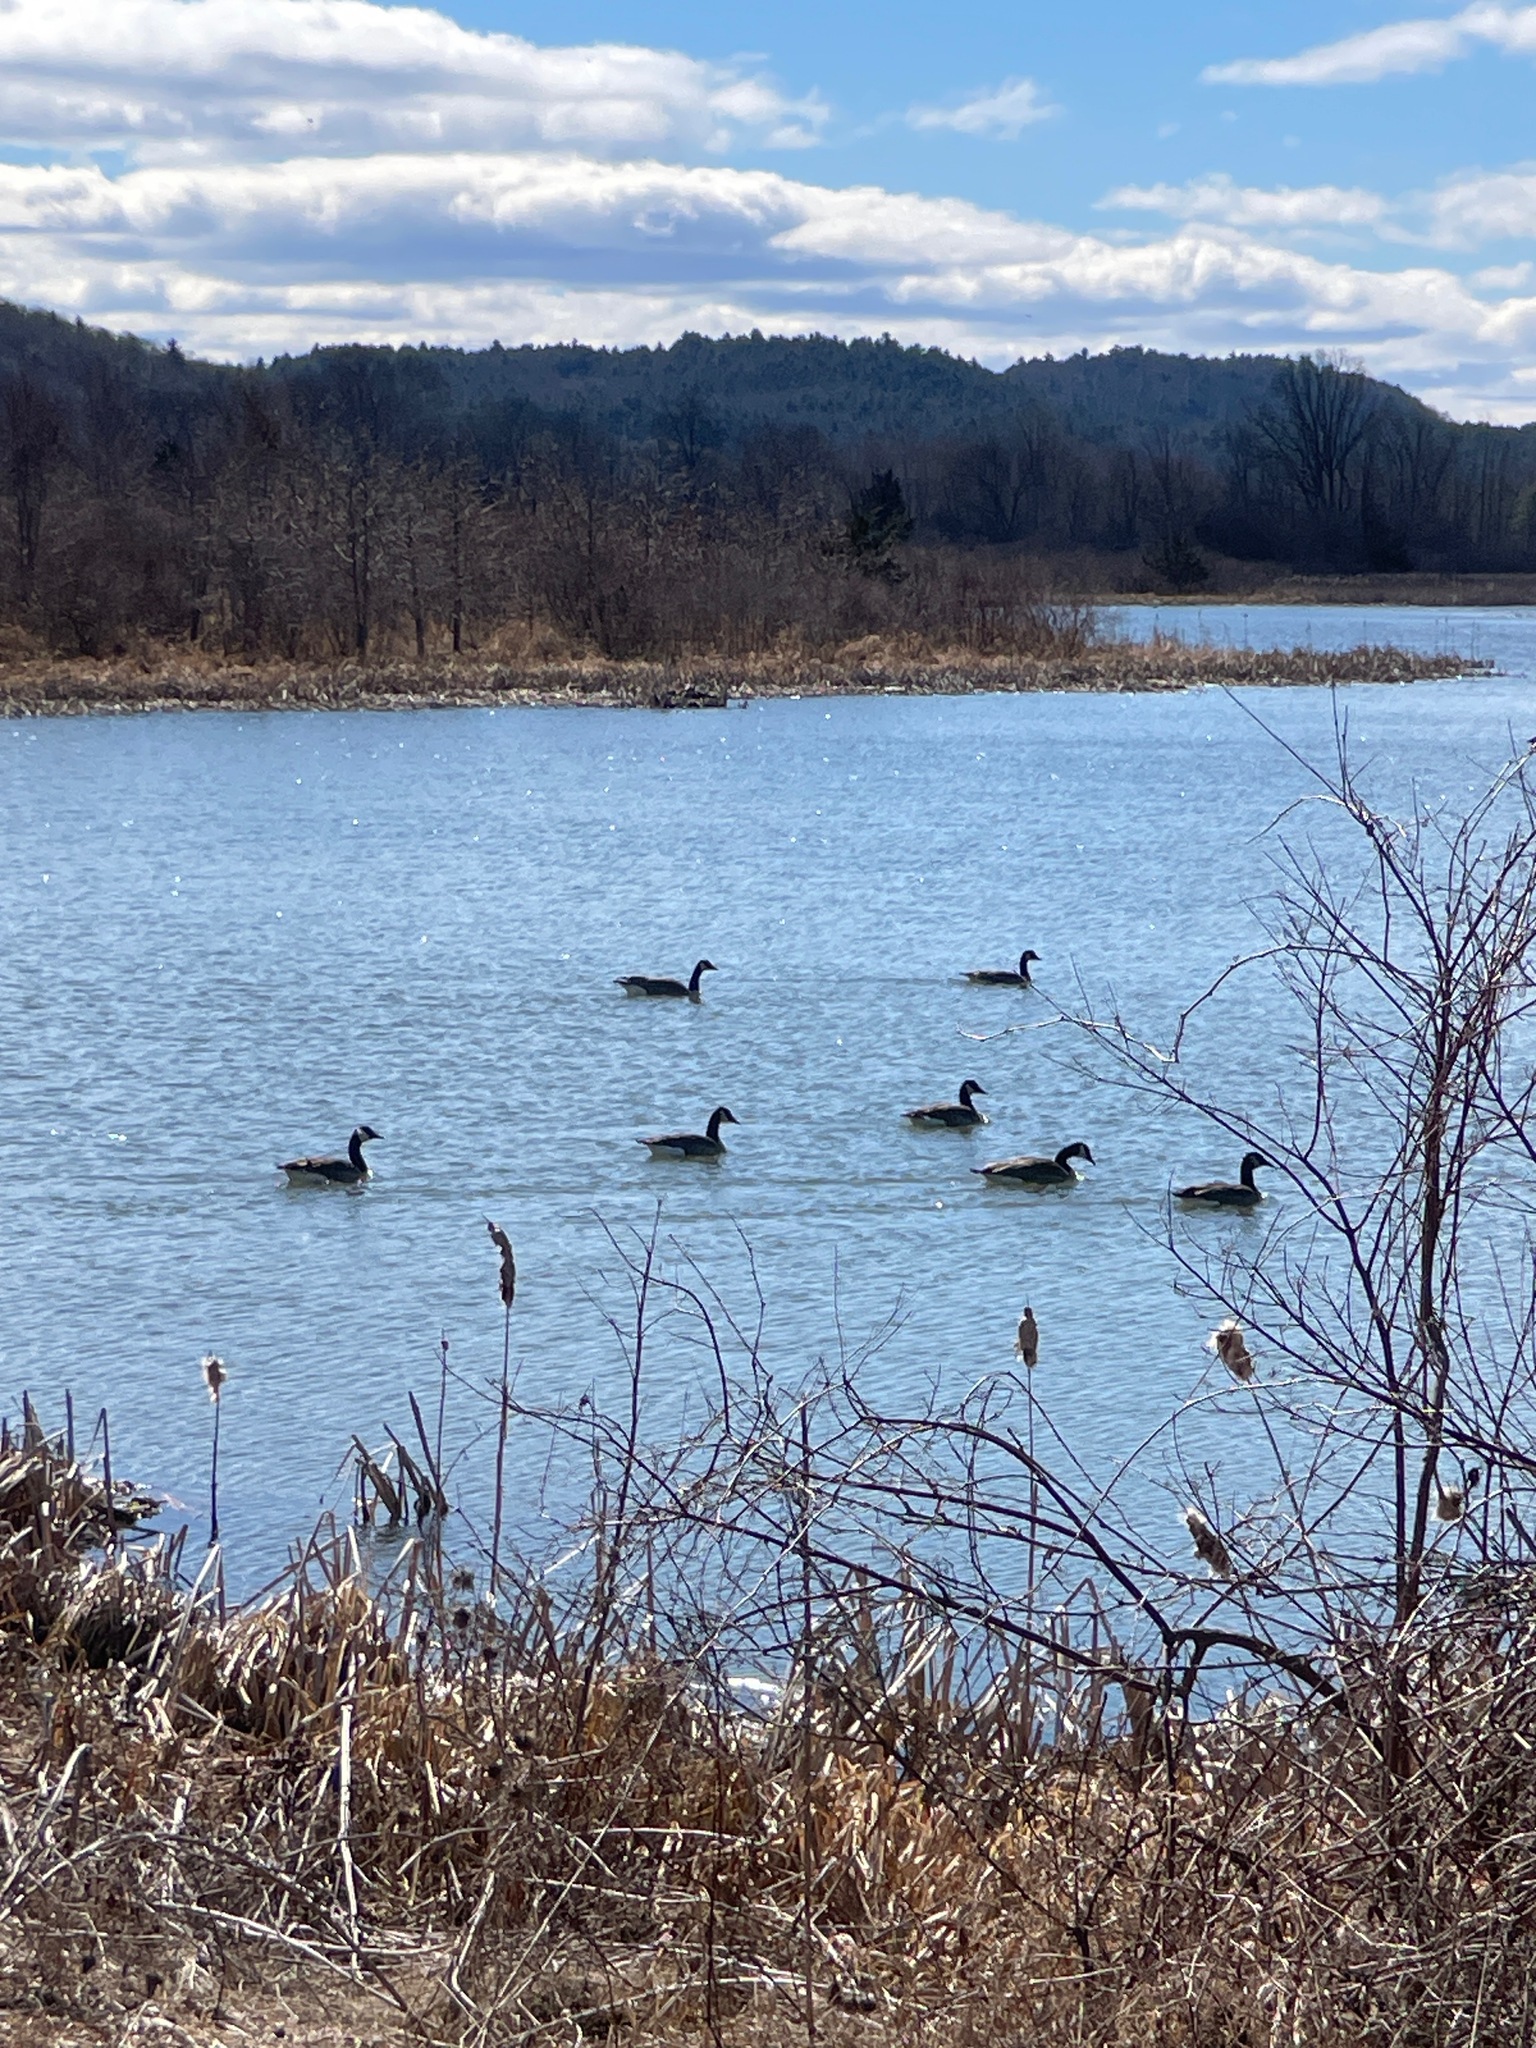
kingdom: Animalia
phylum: Chordata
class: Aves
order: Anseriformes
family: Anatidae
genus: Branta
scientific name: Branta canadensis
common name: Canada goose
